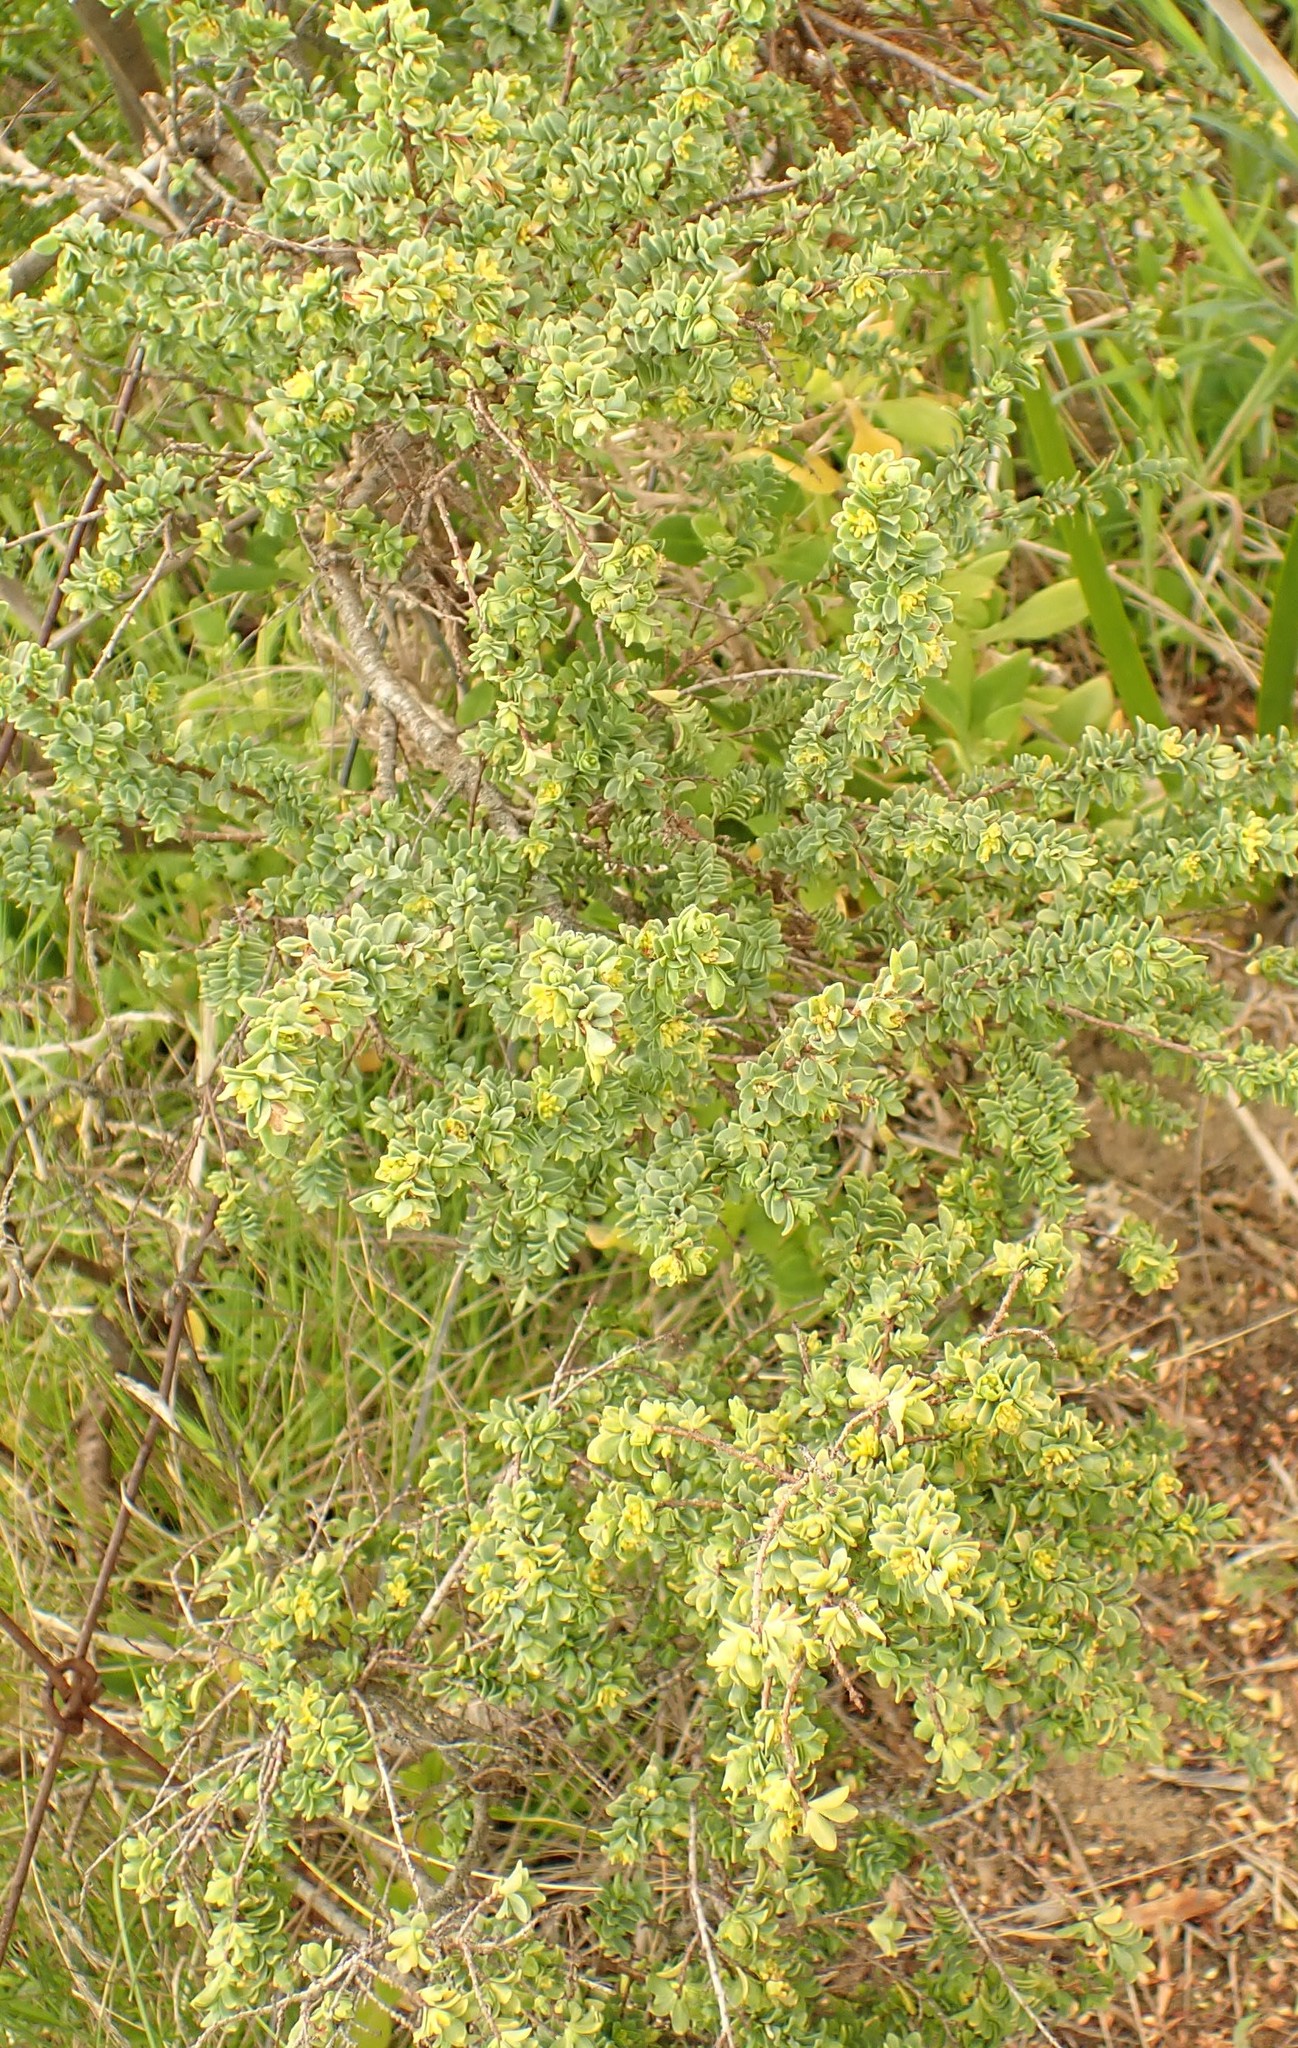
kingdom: Plantae
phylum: Tracheophyta
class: Magnoliopsida
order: Malvales
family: Thymelaeaceae
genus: Pimelea
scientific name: Pimelea serpyllifolia
